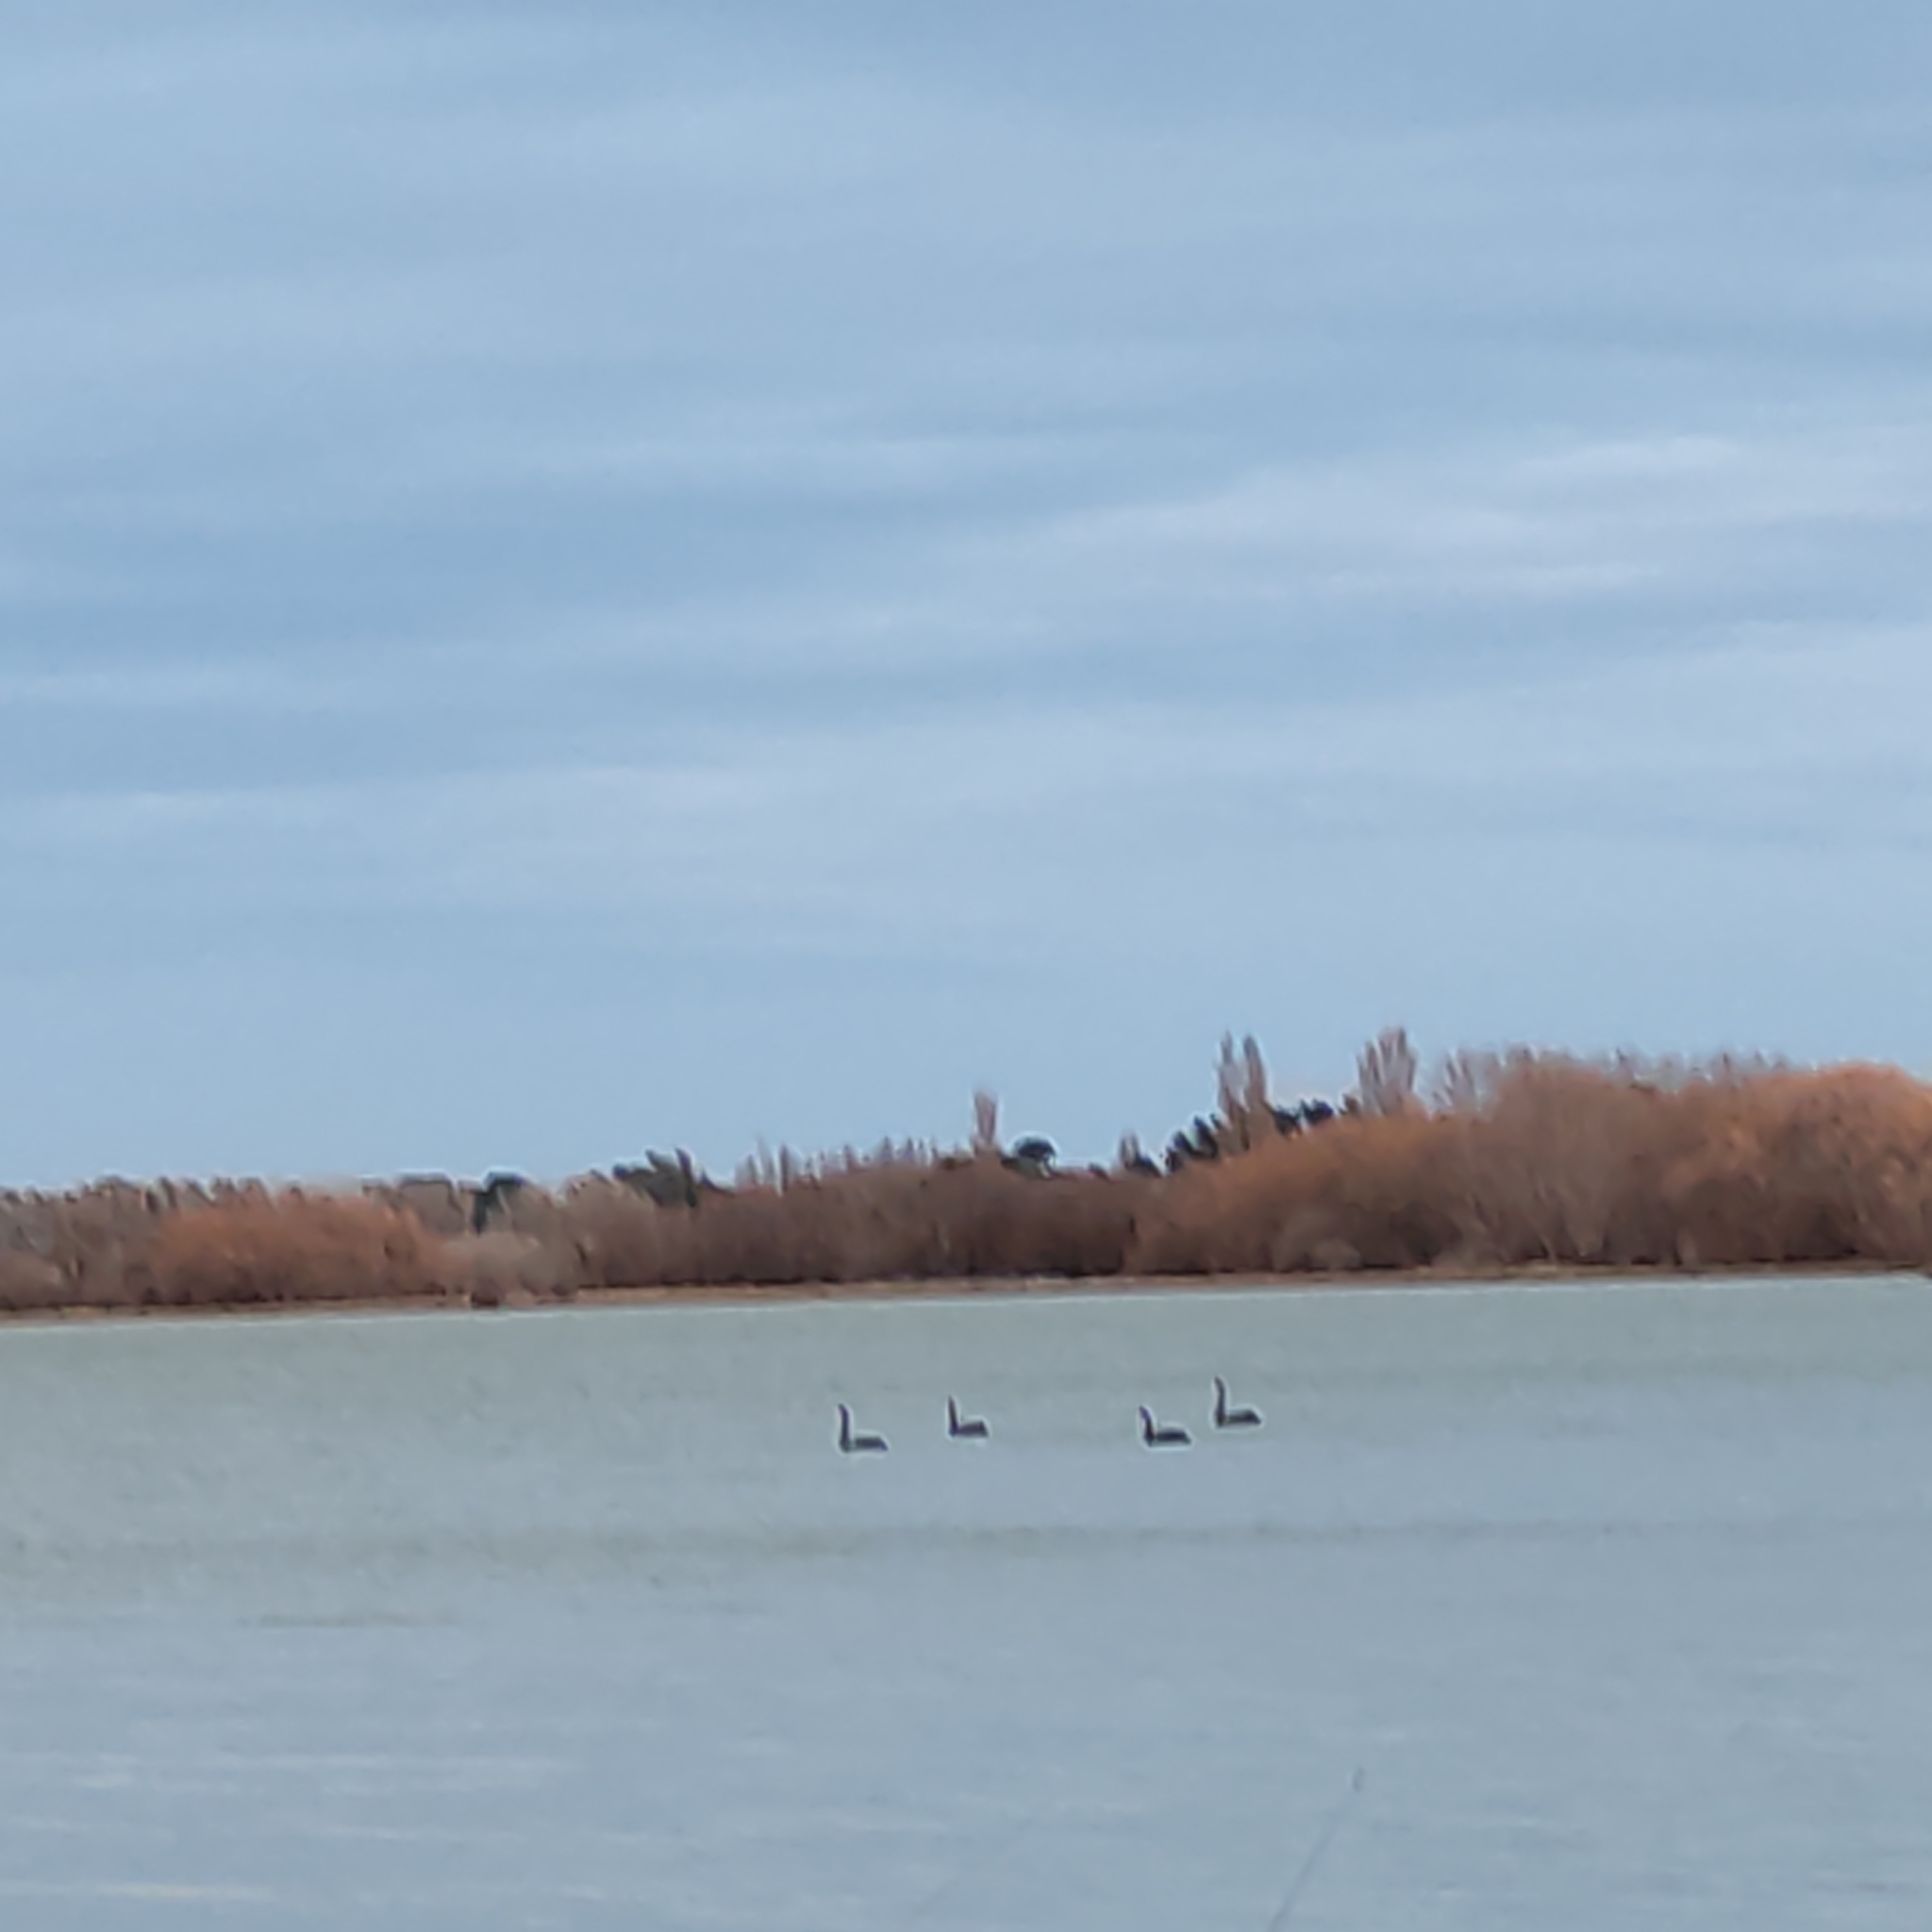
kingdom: Animalia
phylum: Chordata
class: Aves
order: Anseriformes
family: Anatidae
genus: Cygnus
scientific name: Cygnus atratus
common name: Black swan
